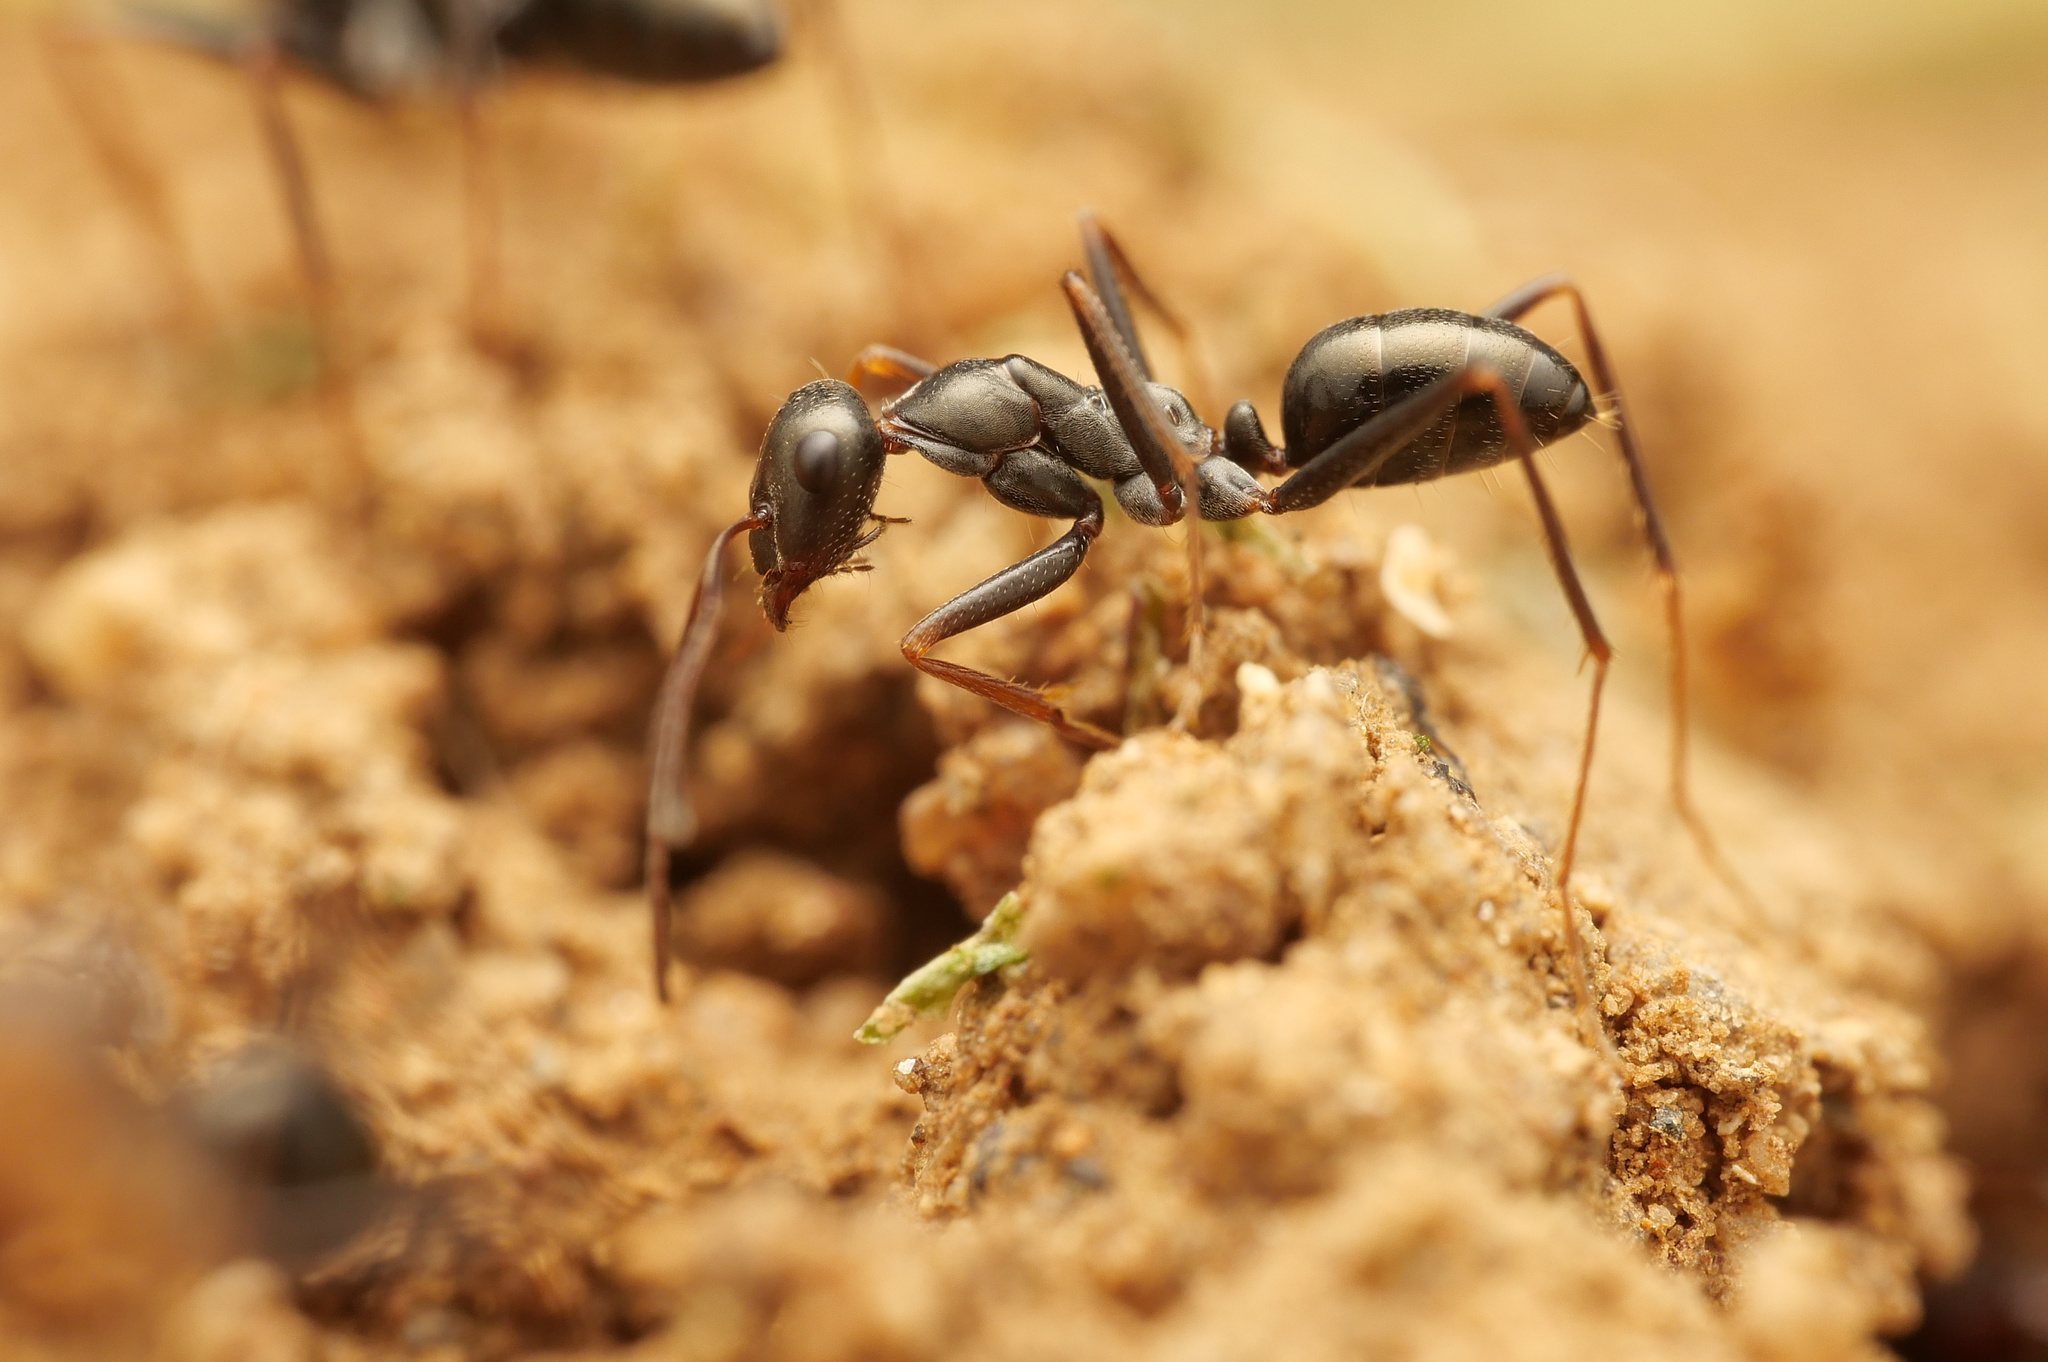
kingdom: Animalia
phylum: Arthropoda
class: Insecta
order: Hymenoptera
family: Formicidae
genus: Cataglyphis
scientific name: Cataglyphis hellenicus
